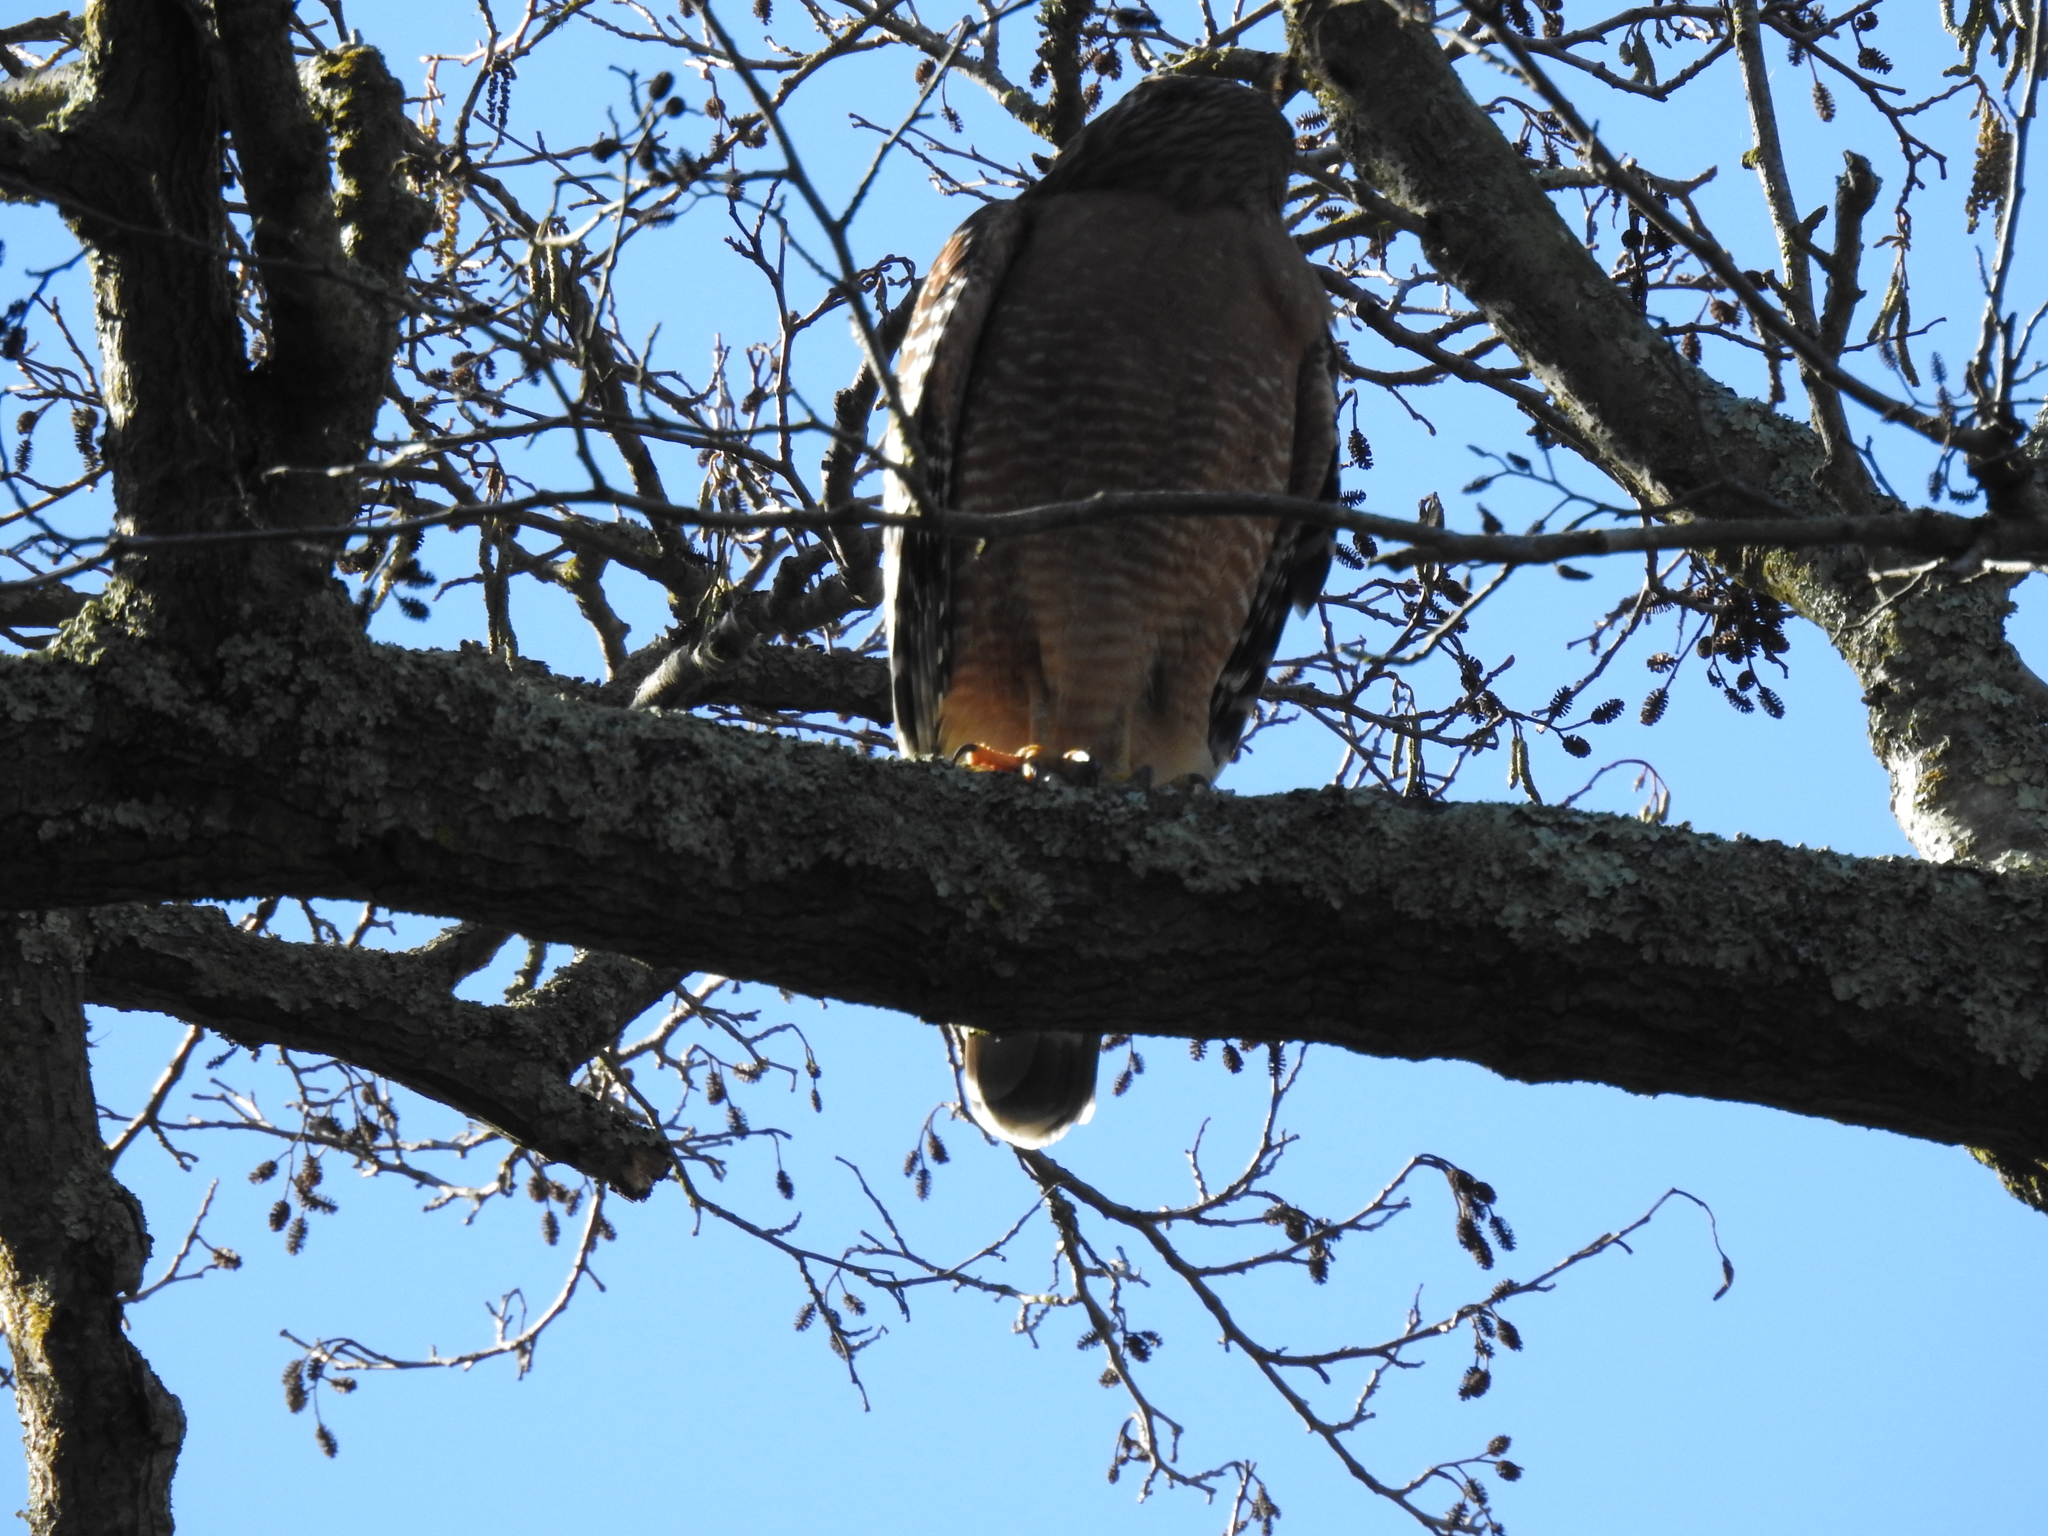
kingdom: Animalia
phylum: Chordata
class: Aves
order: Accipitriformes
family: Accipitridae
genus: Buteo
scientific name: Buteo lineatus
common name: Red-shouldered hawk
